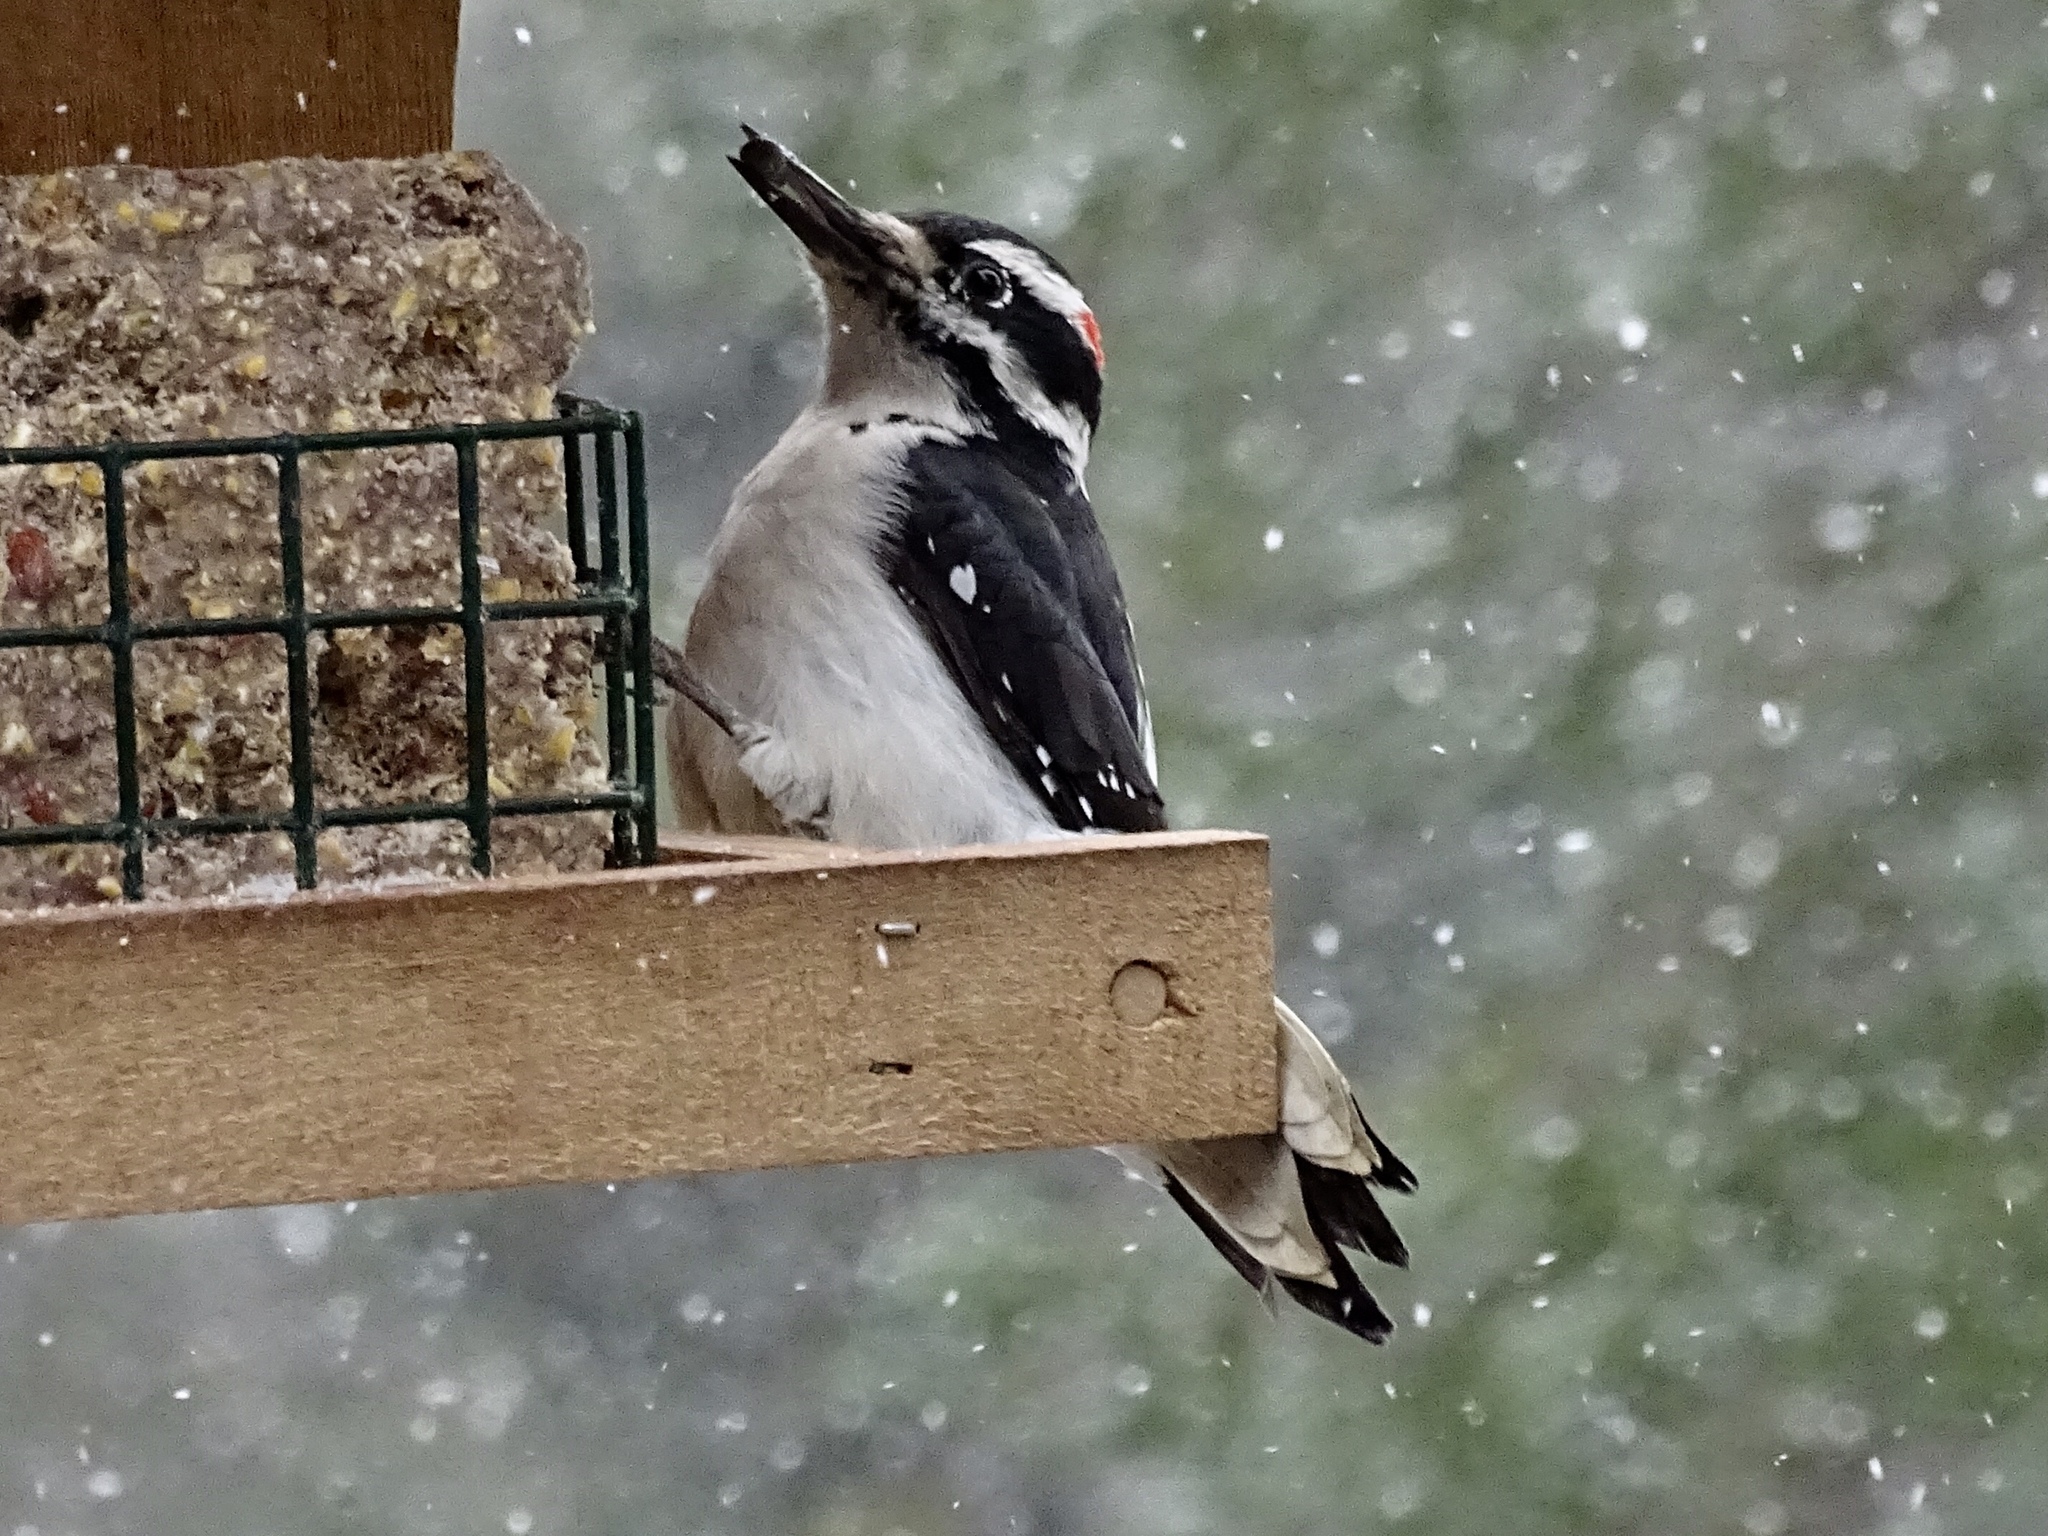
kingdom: Animalia
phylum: Chordata
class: Aves
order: Piciformes
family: Picidae
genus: Leuconotopicus
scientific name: Leuconotopicus villosus
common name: Hairy woodpecker
